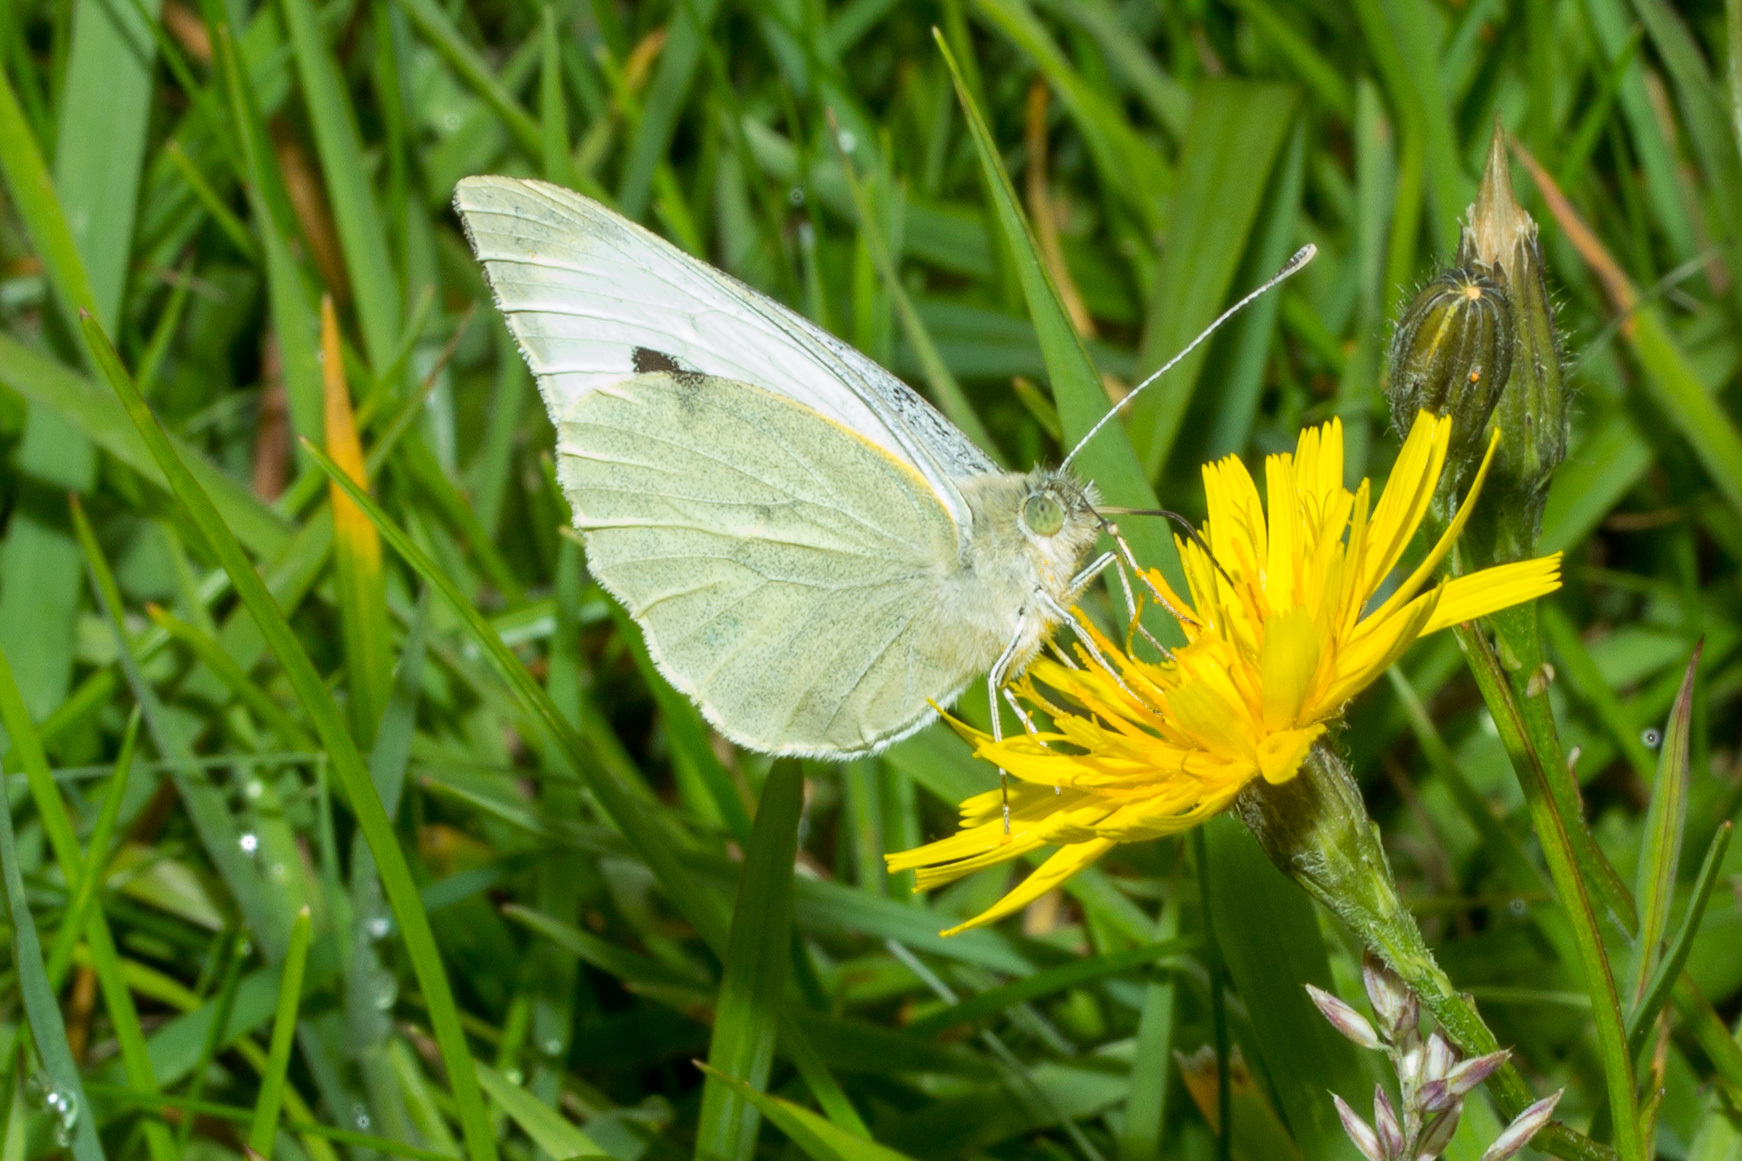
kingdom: Animalia
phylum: Arthropoda
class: Insecta
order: Lepidoptera
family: Pieridae
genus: Pieris
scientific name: Pieris brassicae
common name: Large white
